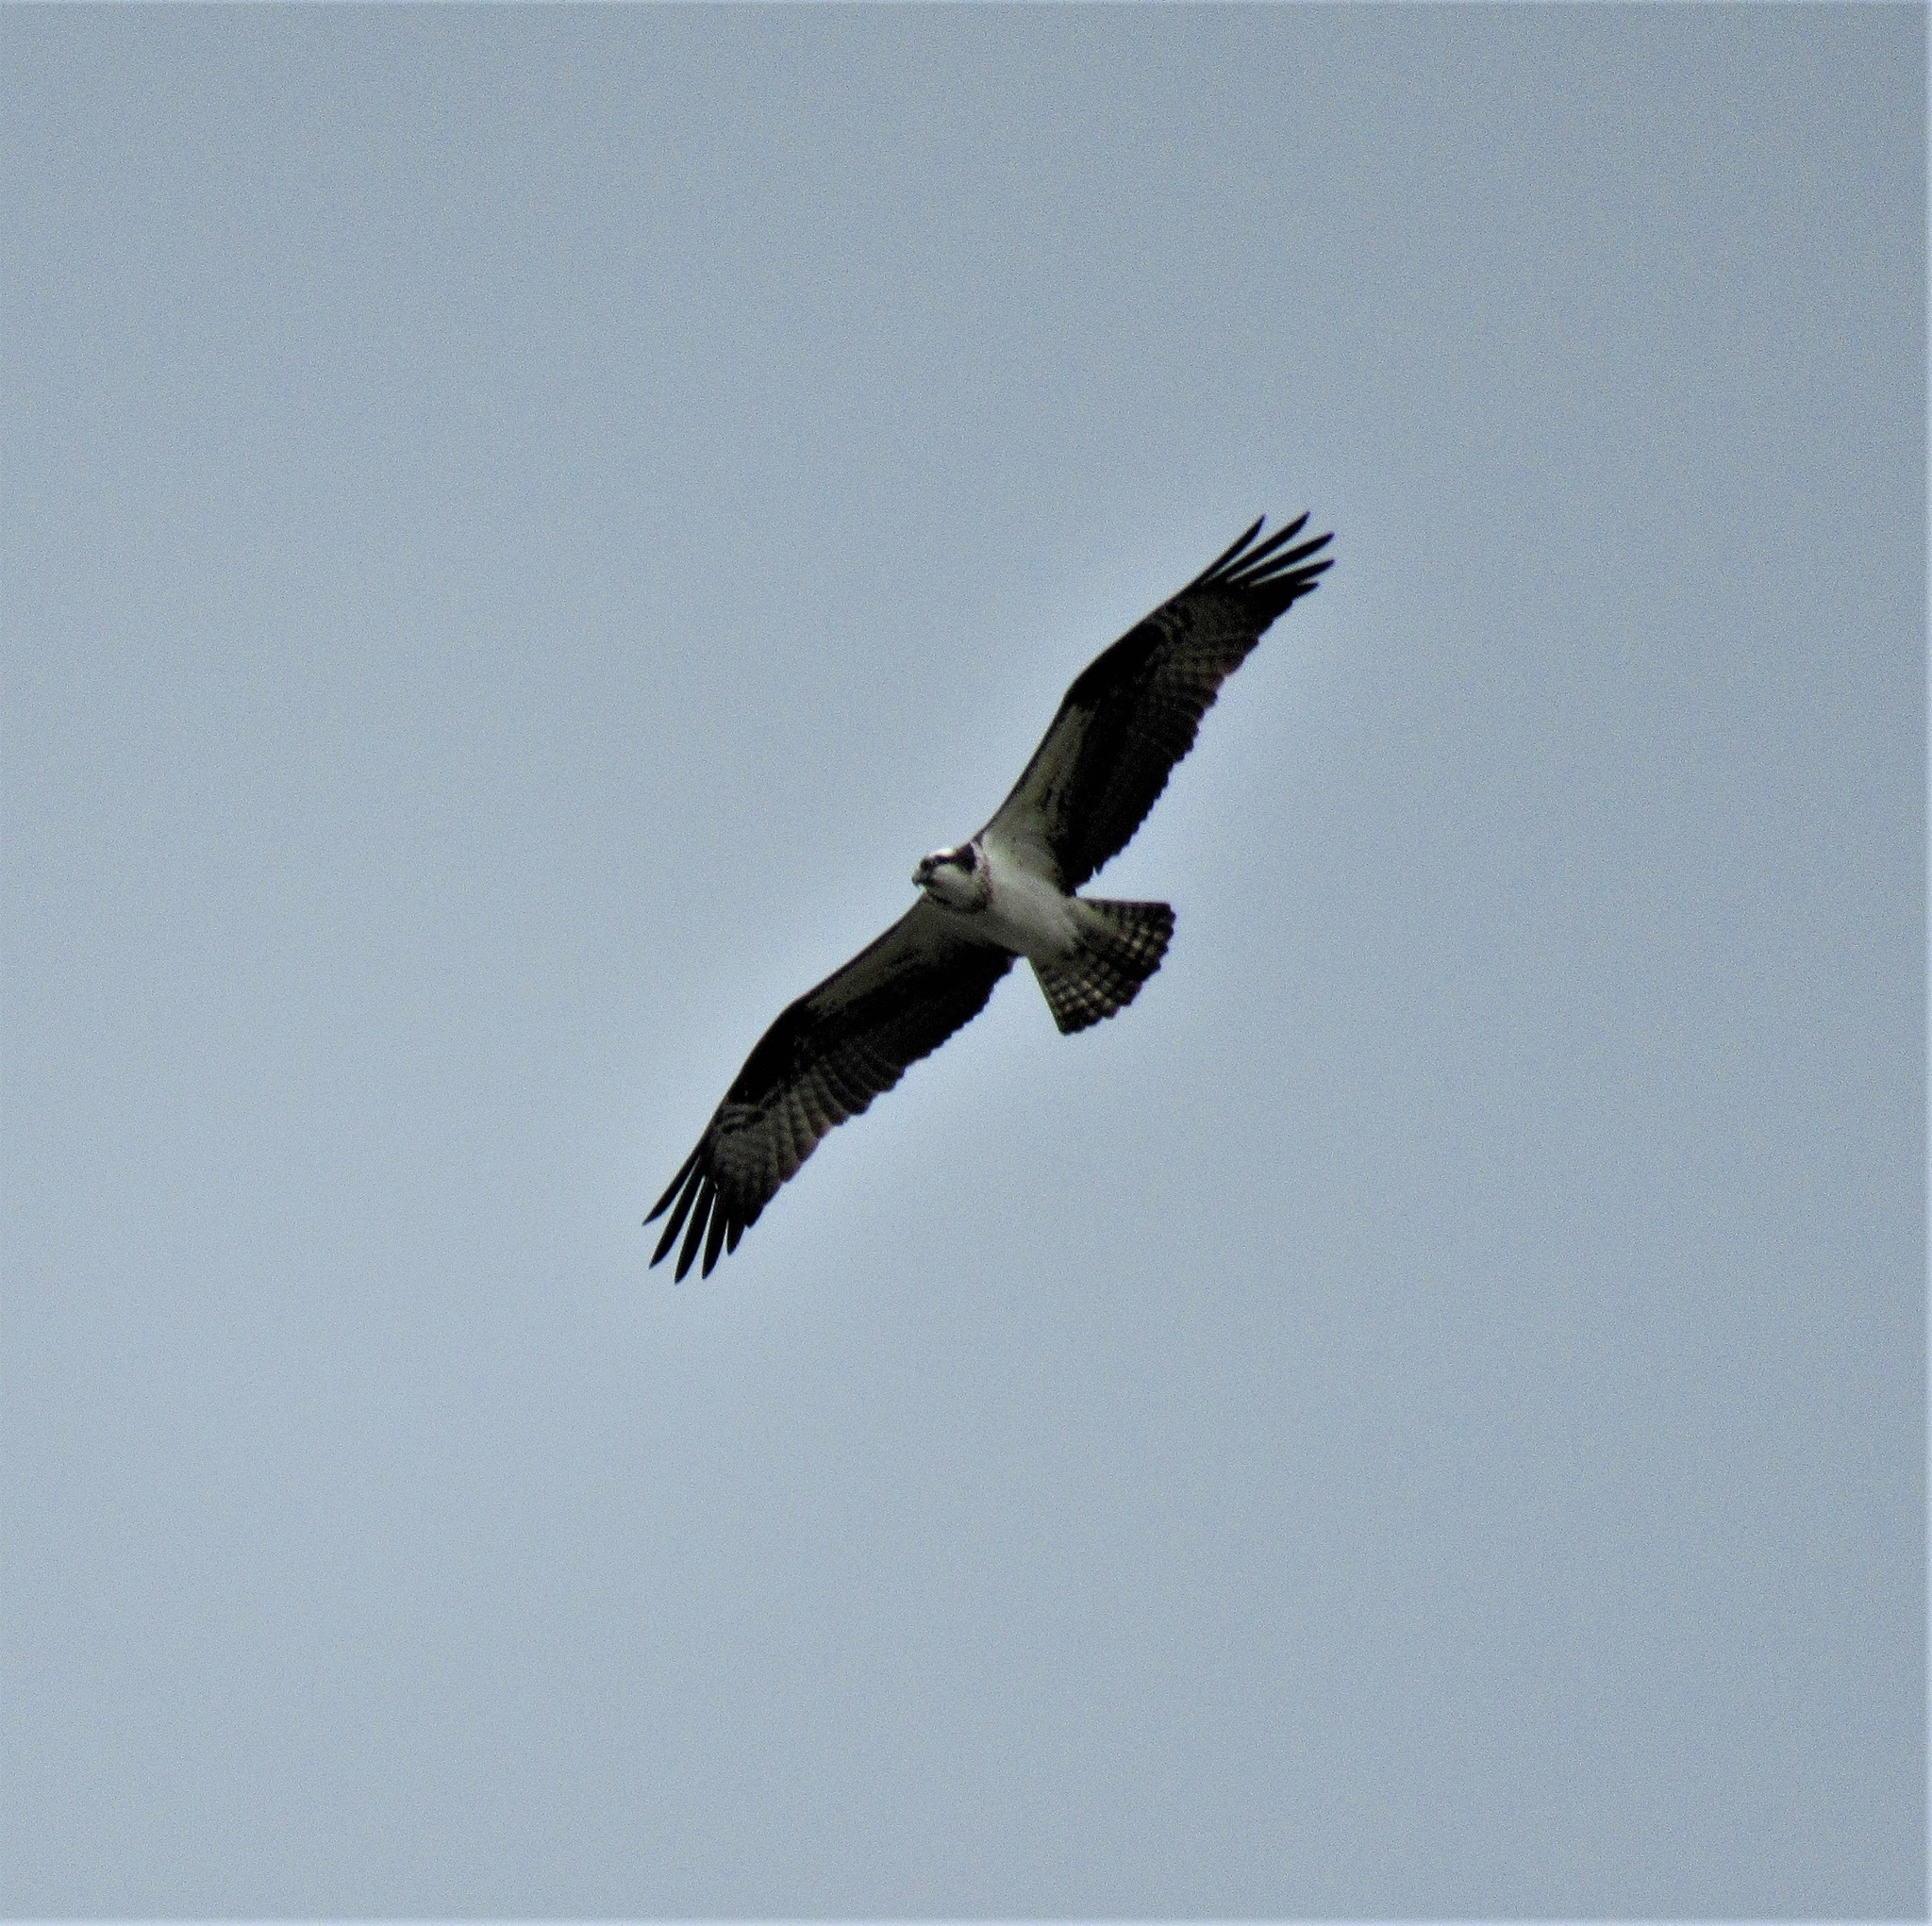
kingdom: Animalia
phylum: Chordata
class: Aves
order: Accipitriformes
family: Pandionidae
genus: Pandion
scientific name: Pandion haliaetus
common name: Osprey
